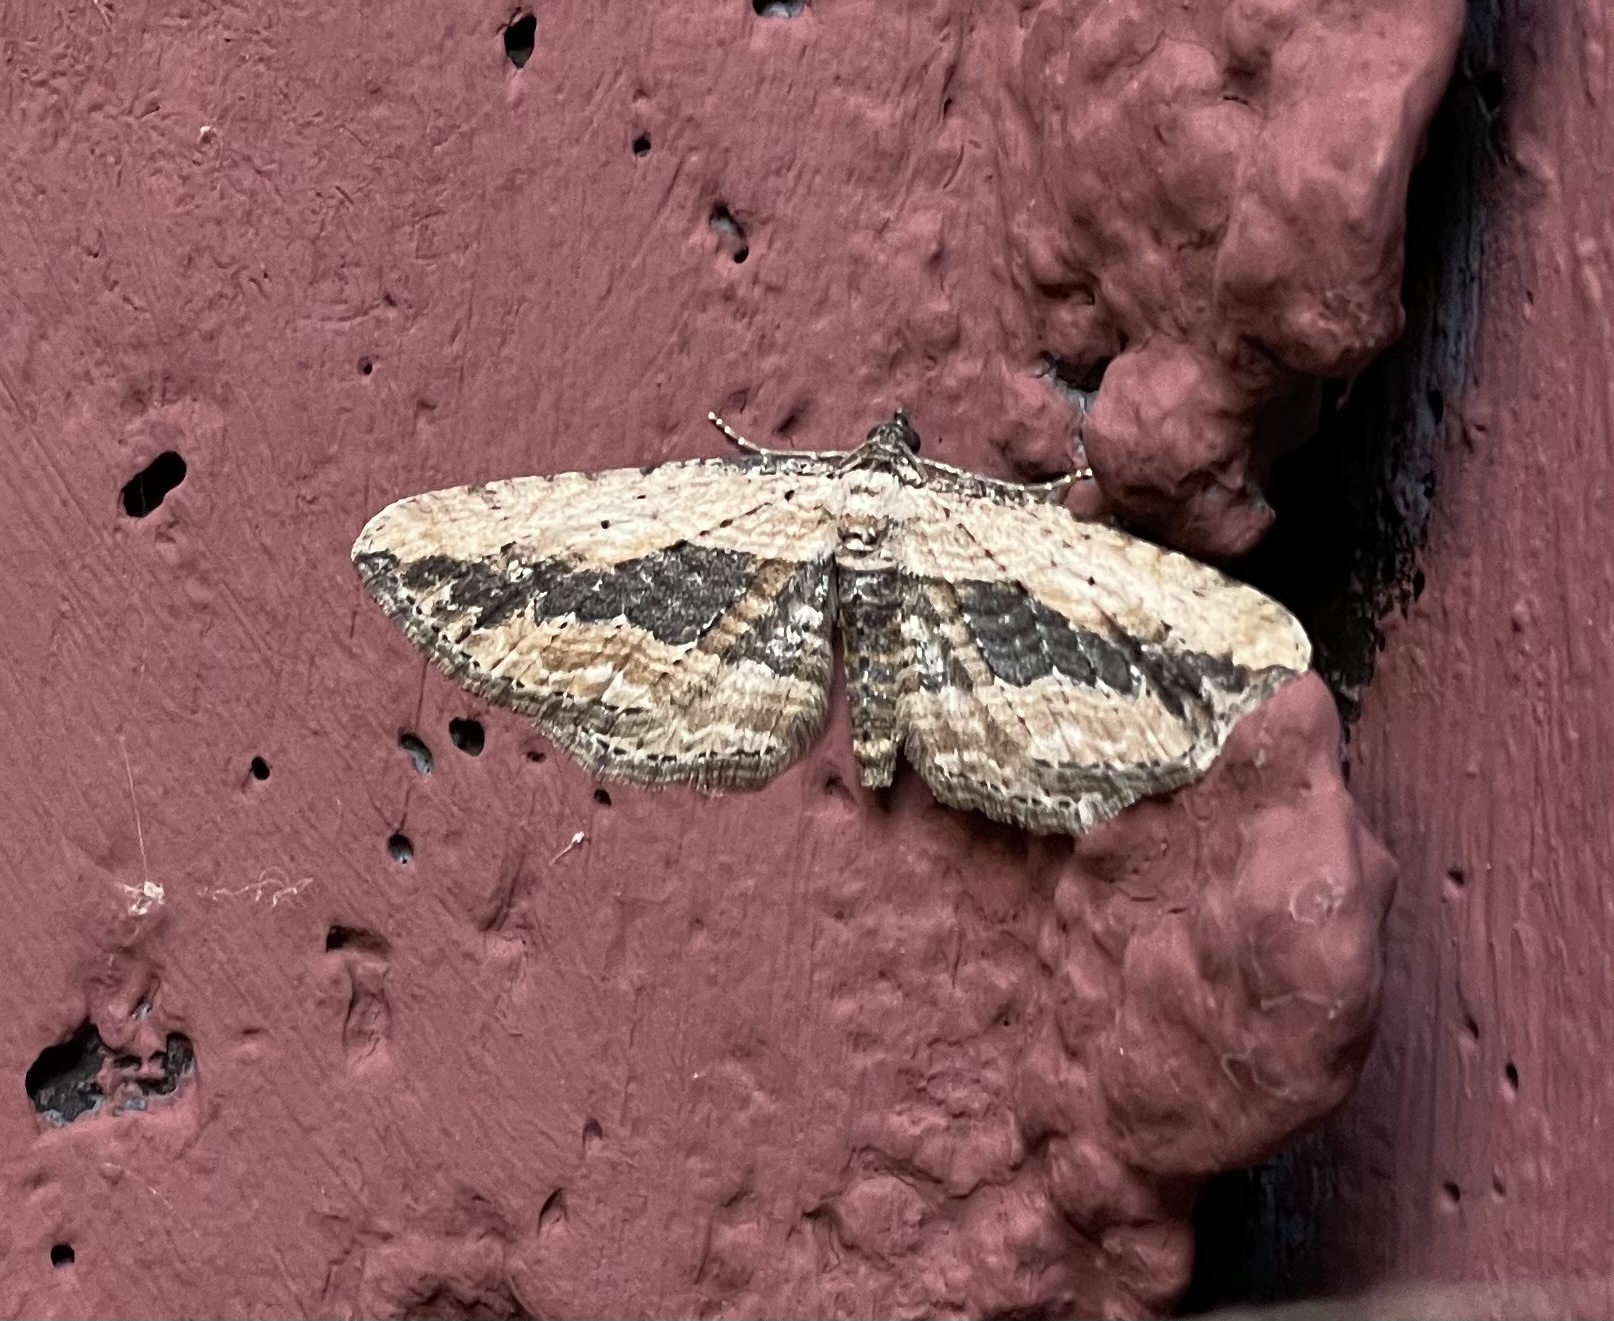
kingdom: Animalia
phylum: Arthropoda
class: Insecta
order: Lepidoptera
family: Geometridae
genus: Horisme
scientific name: Horisme vitalbata
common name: Small waved umber
